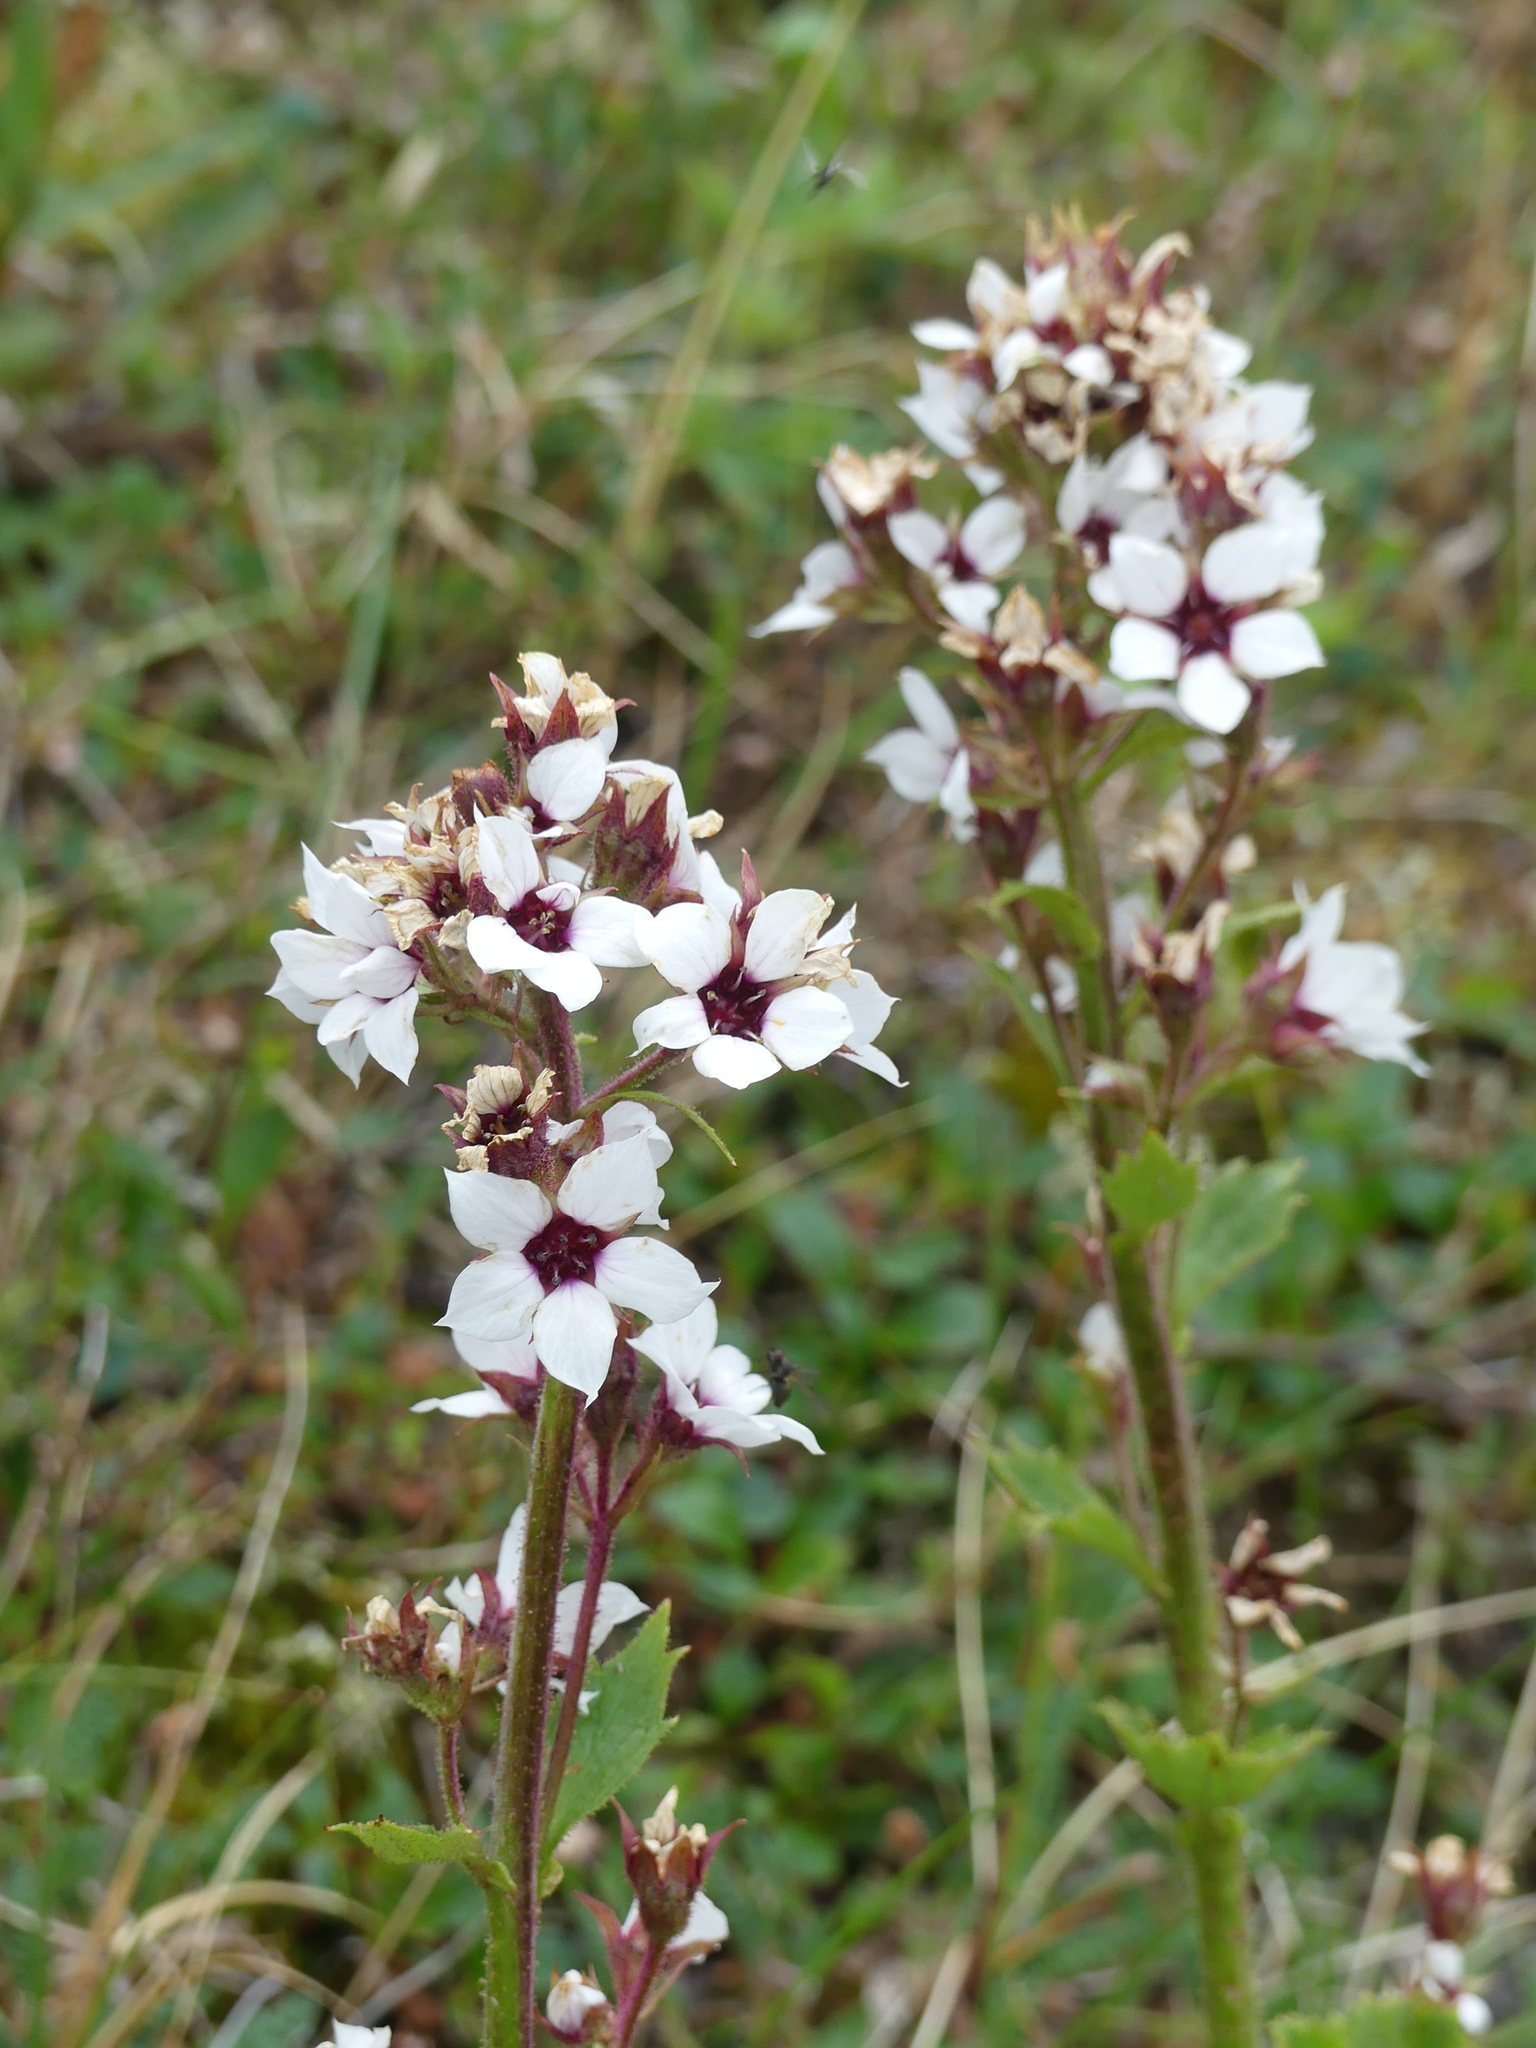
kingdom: Plantae
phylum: Tracheophyta
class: Magnoliopsida
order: Saxifragales
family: Saxifragaceae
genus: Boykinia
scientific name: Boykinia richardsonii
